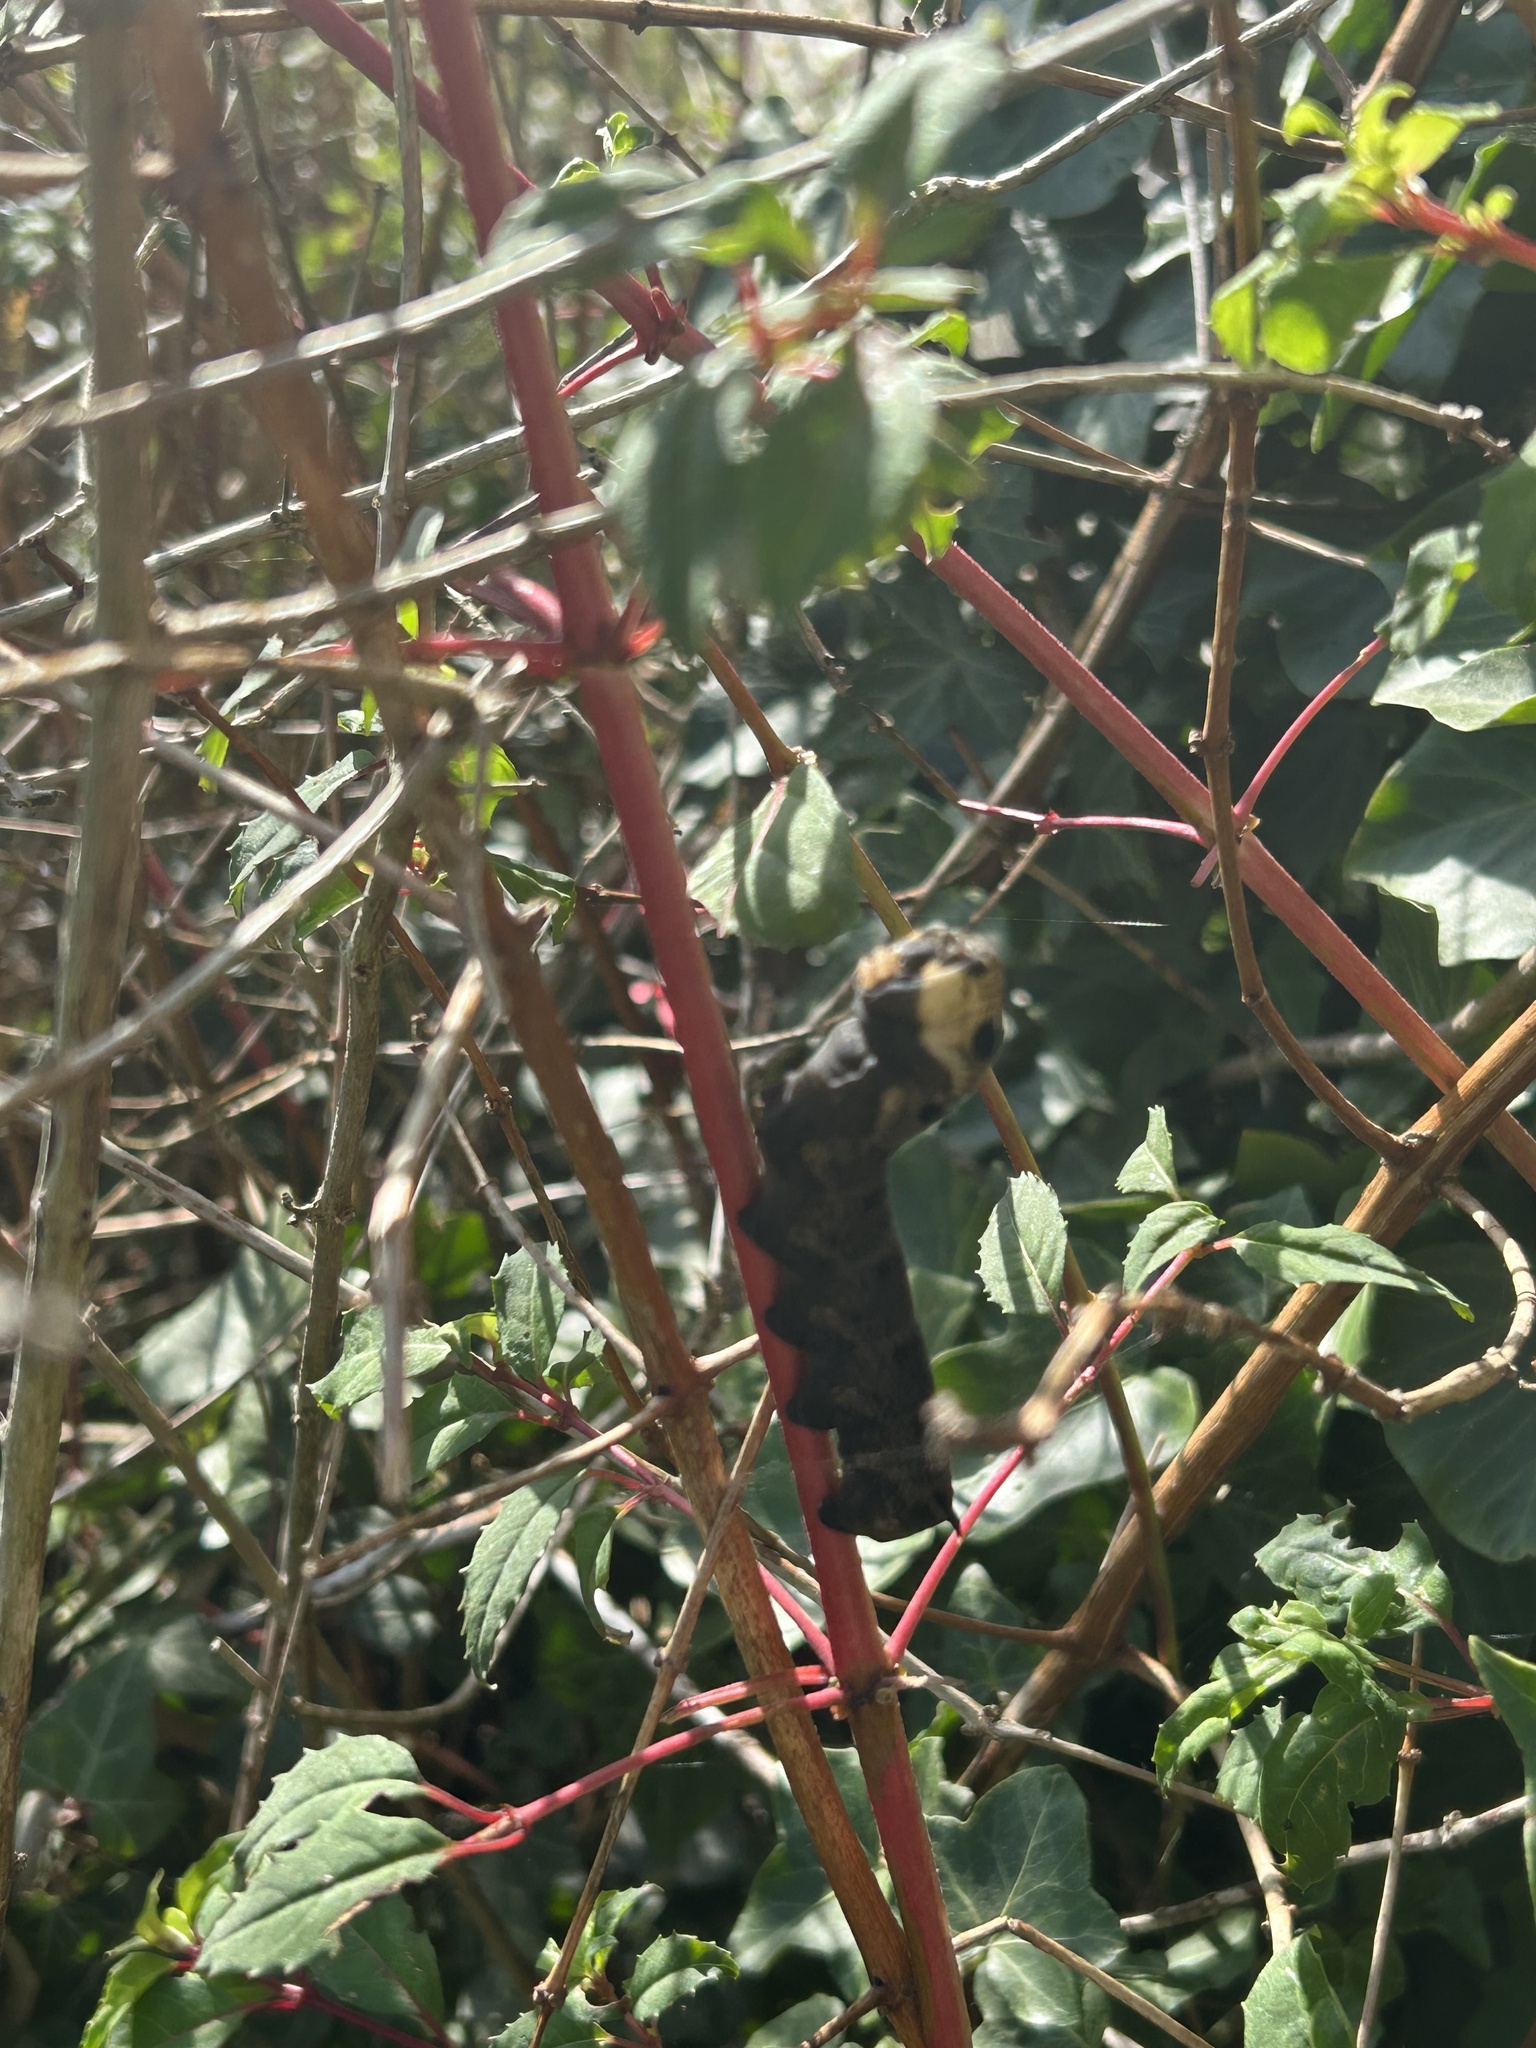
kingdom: Animalia
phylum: Arthropoda
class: Insecta
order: Lepidoptera
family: Sphingidae
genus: Deilephila
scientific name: Deilephila elpenor
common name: Elephant hawk-moth
